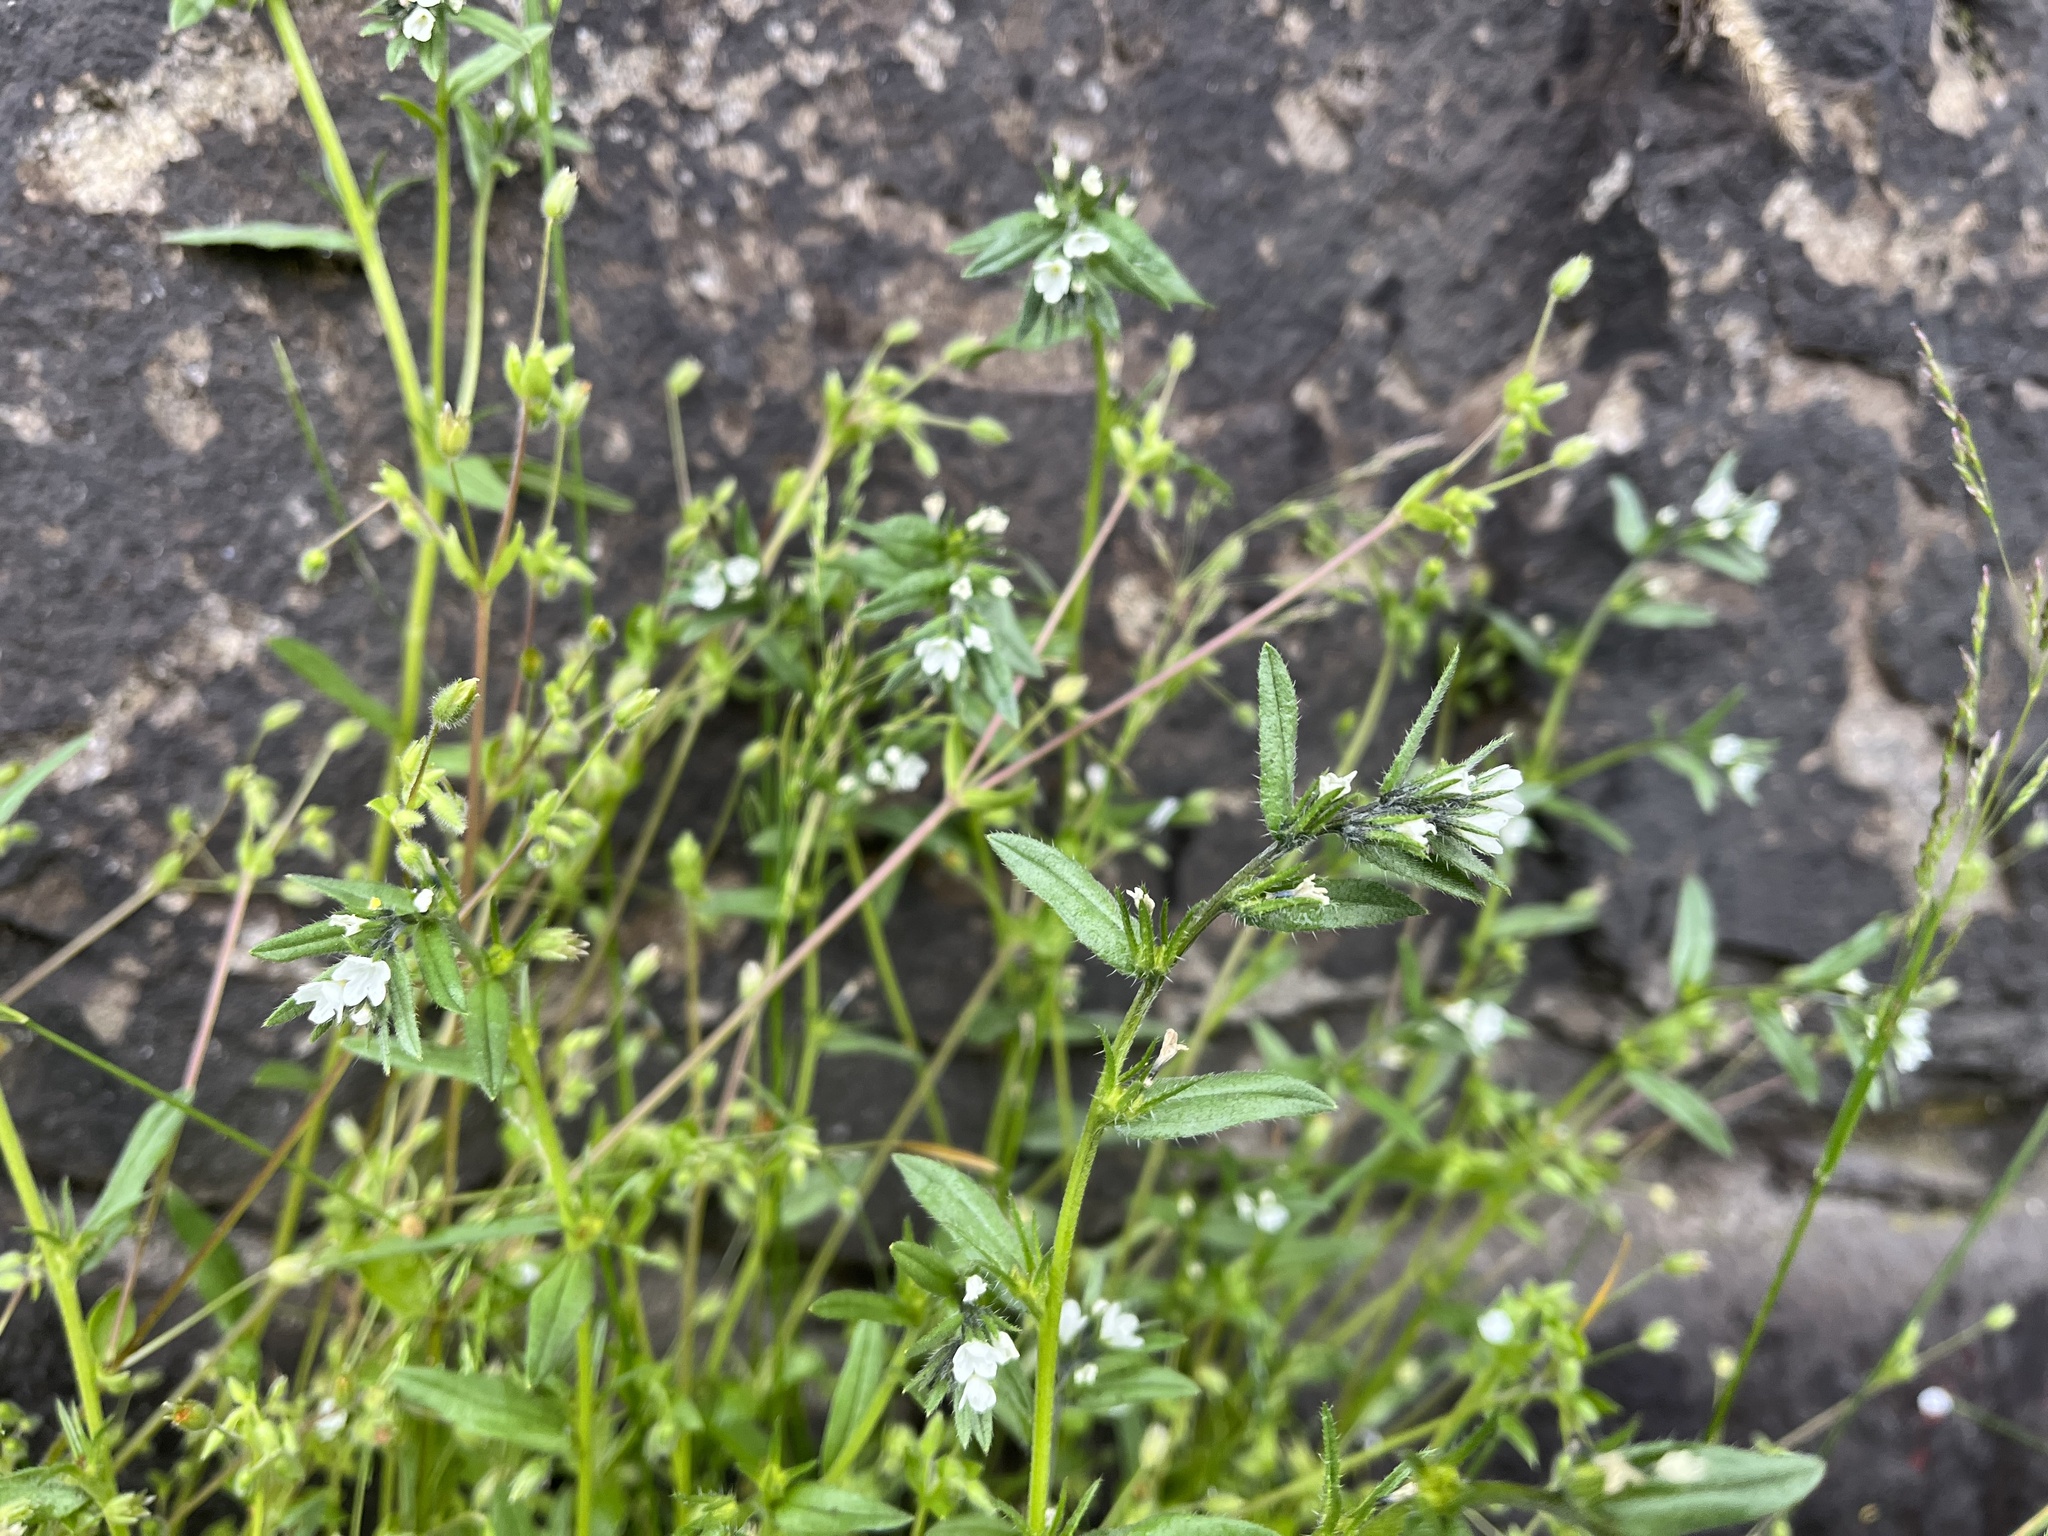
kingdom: Plantae
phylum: Tracheophyta
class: Magnoliopsida
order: Boraginales
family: Boraginaceae
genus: Buglossoides
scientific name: Buglossoides arvensis
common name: Corn gromwell
